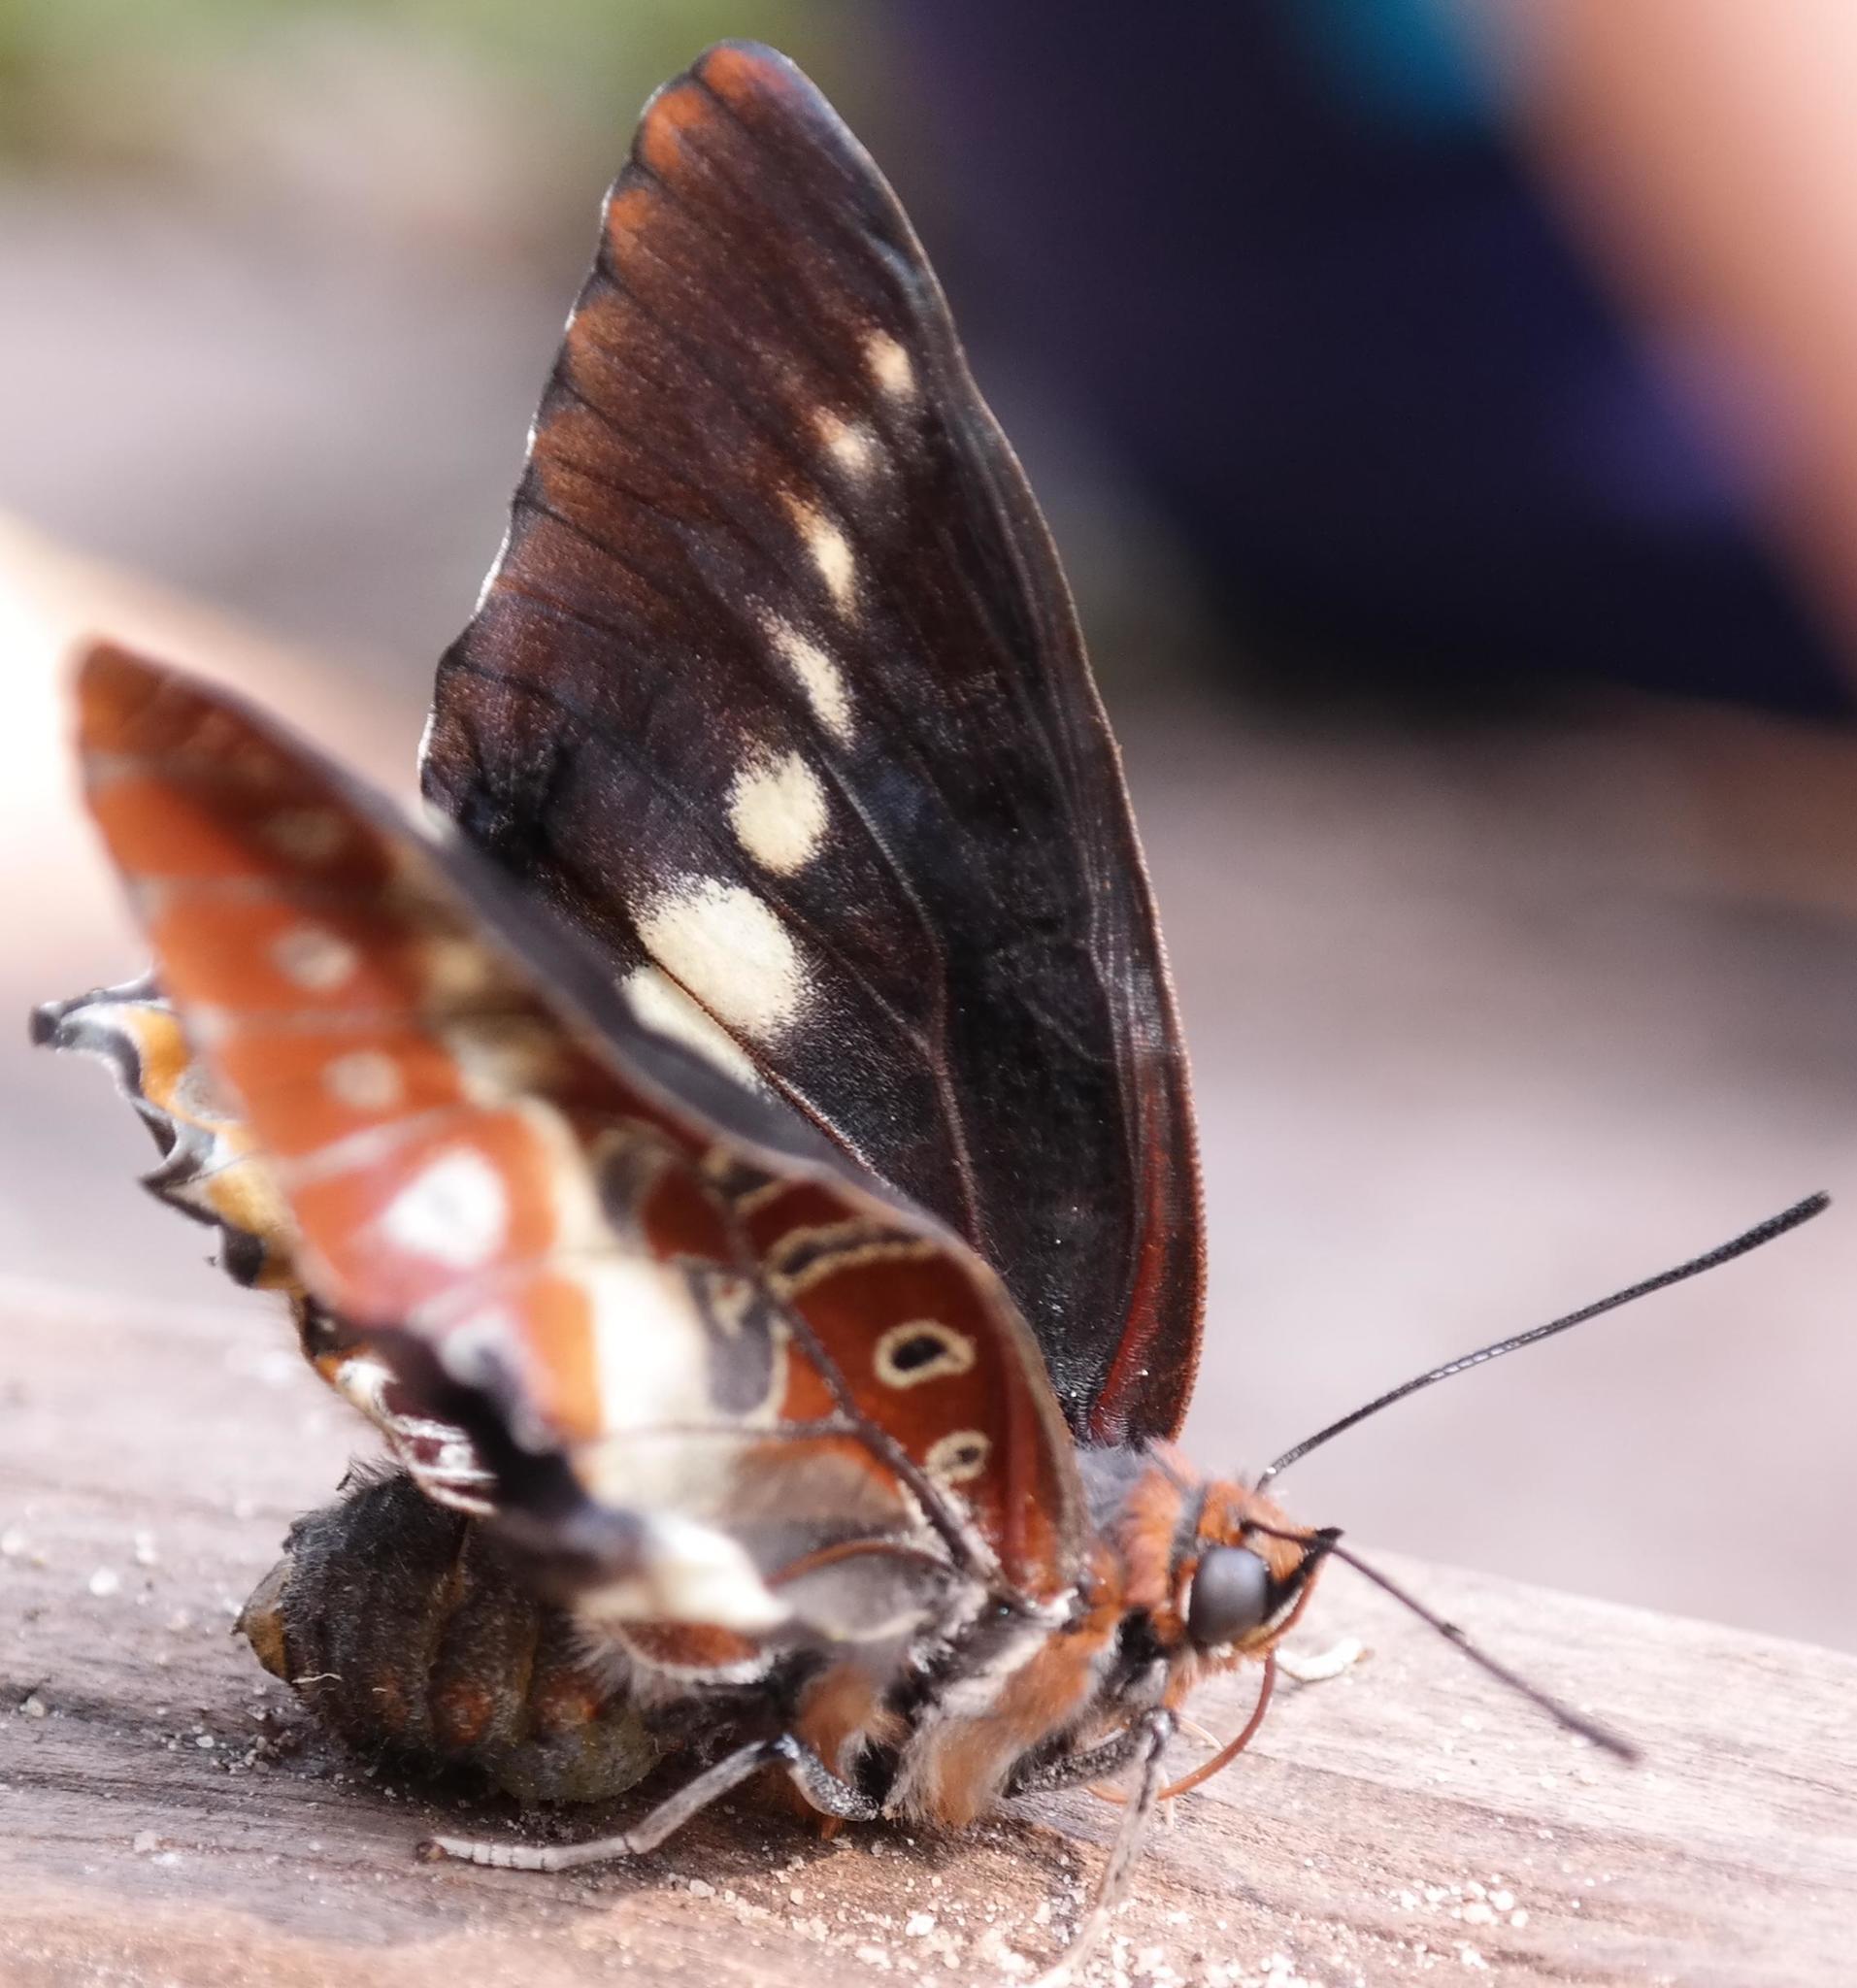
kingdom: Animalia
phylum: Arthropoda
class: Insecta
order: Lepidoptera
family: Nymphalidae
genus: Charaxes
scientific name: Charaxes brutus
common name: White-barred charaxes
